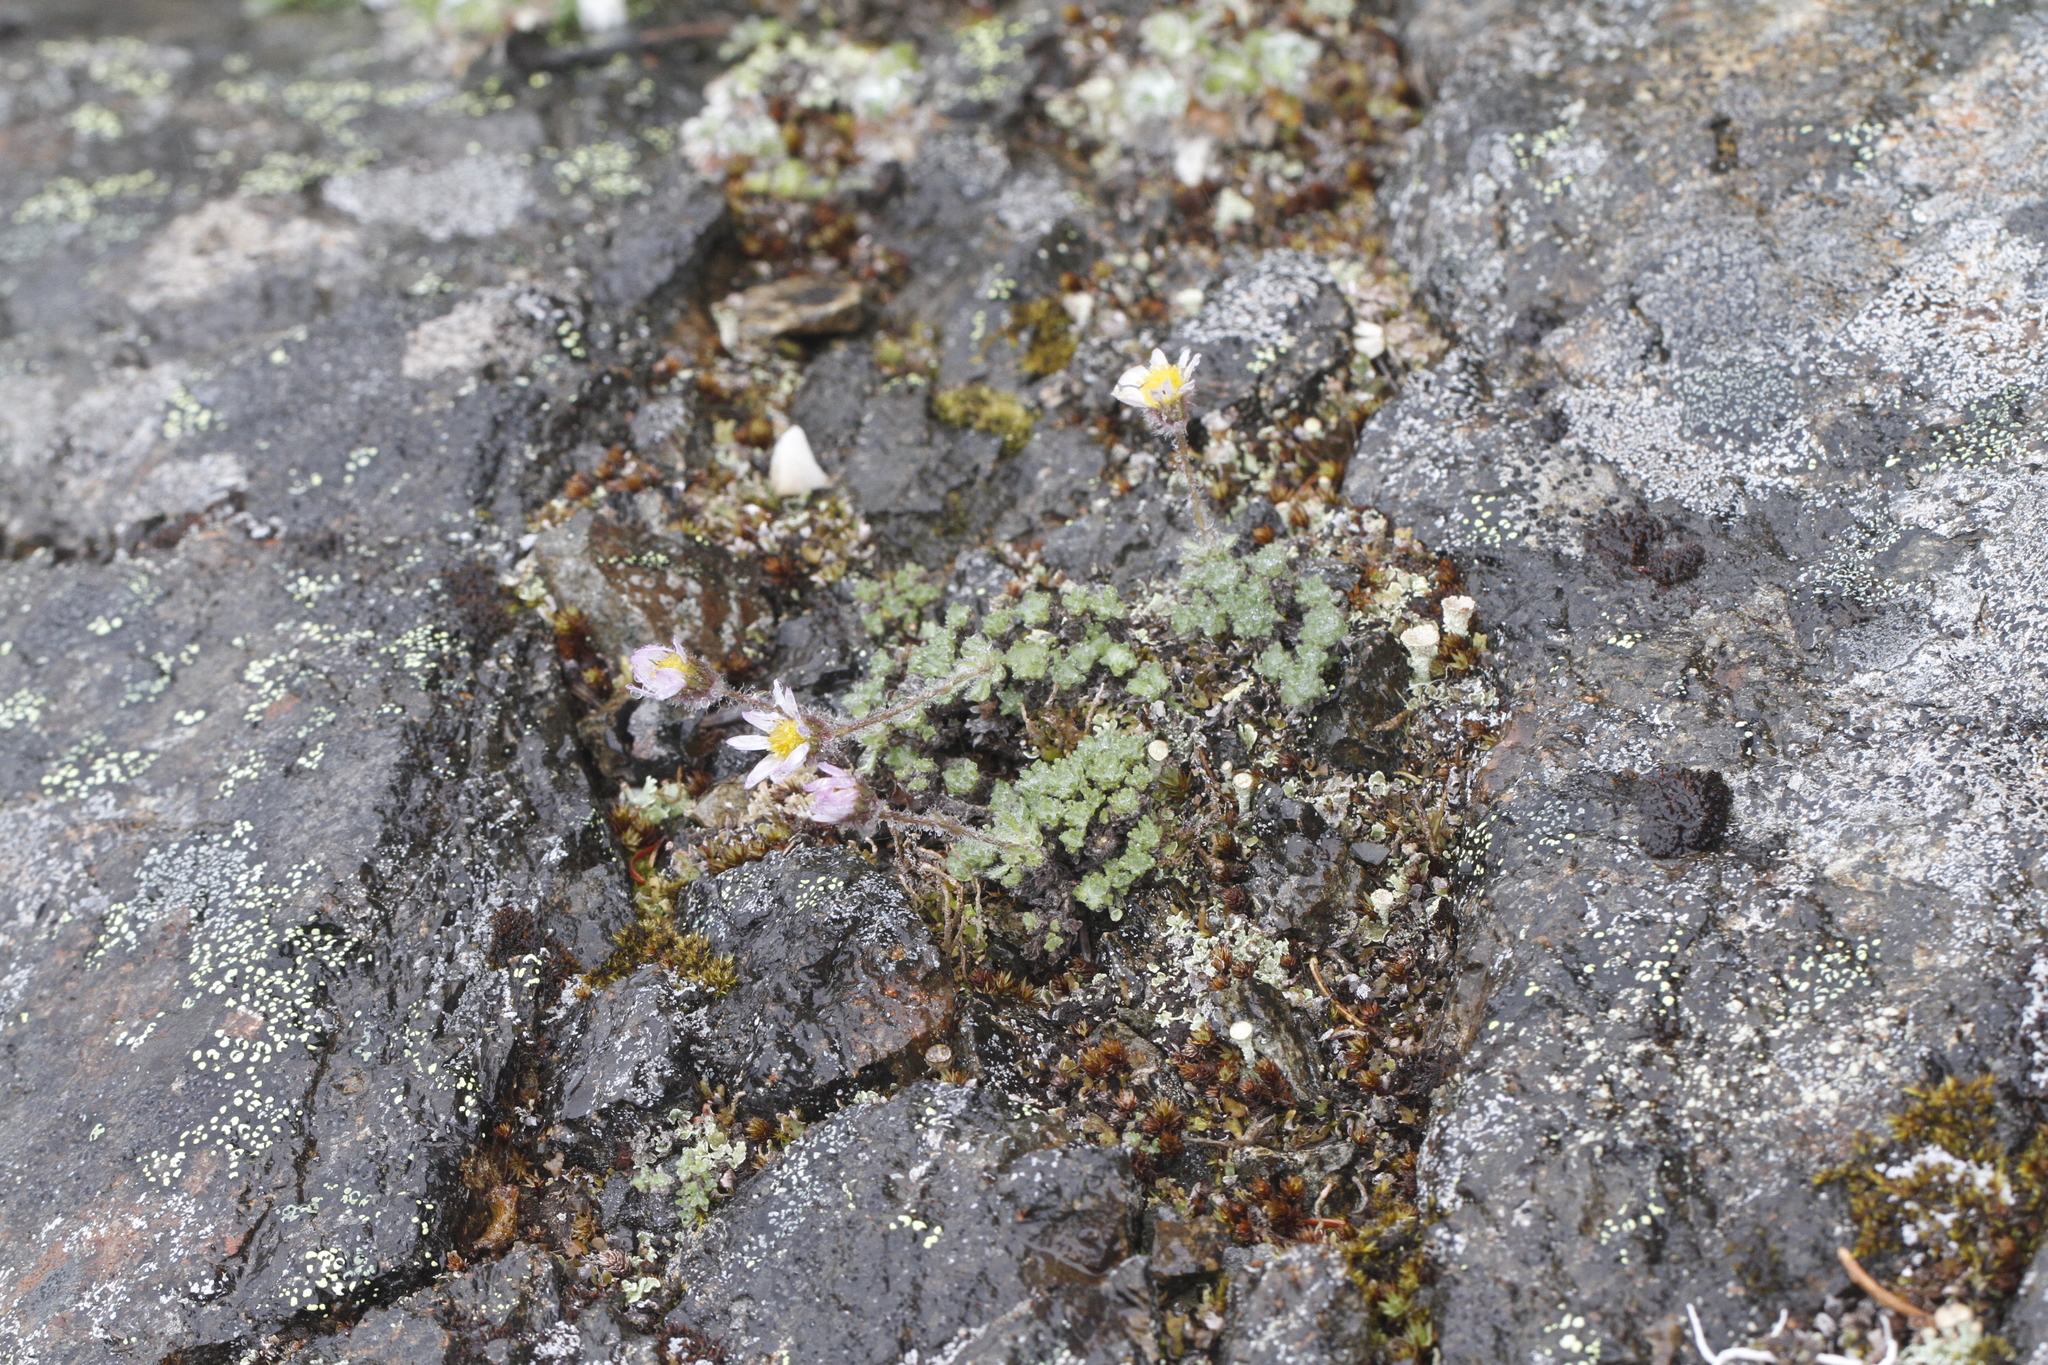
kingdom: Plantae
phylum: Tracheophyta
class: Magnoliopsida
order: Asterales
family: Asteraceae
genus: Erigeron
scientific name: Erigeron salishii
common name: Salish daisy
